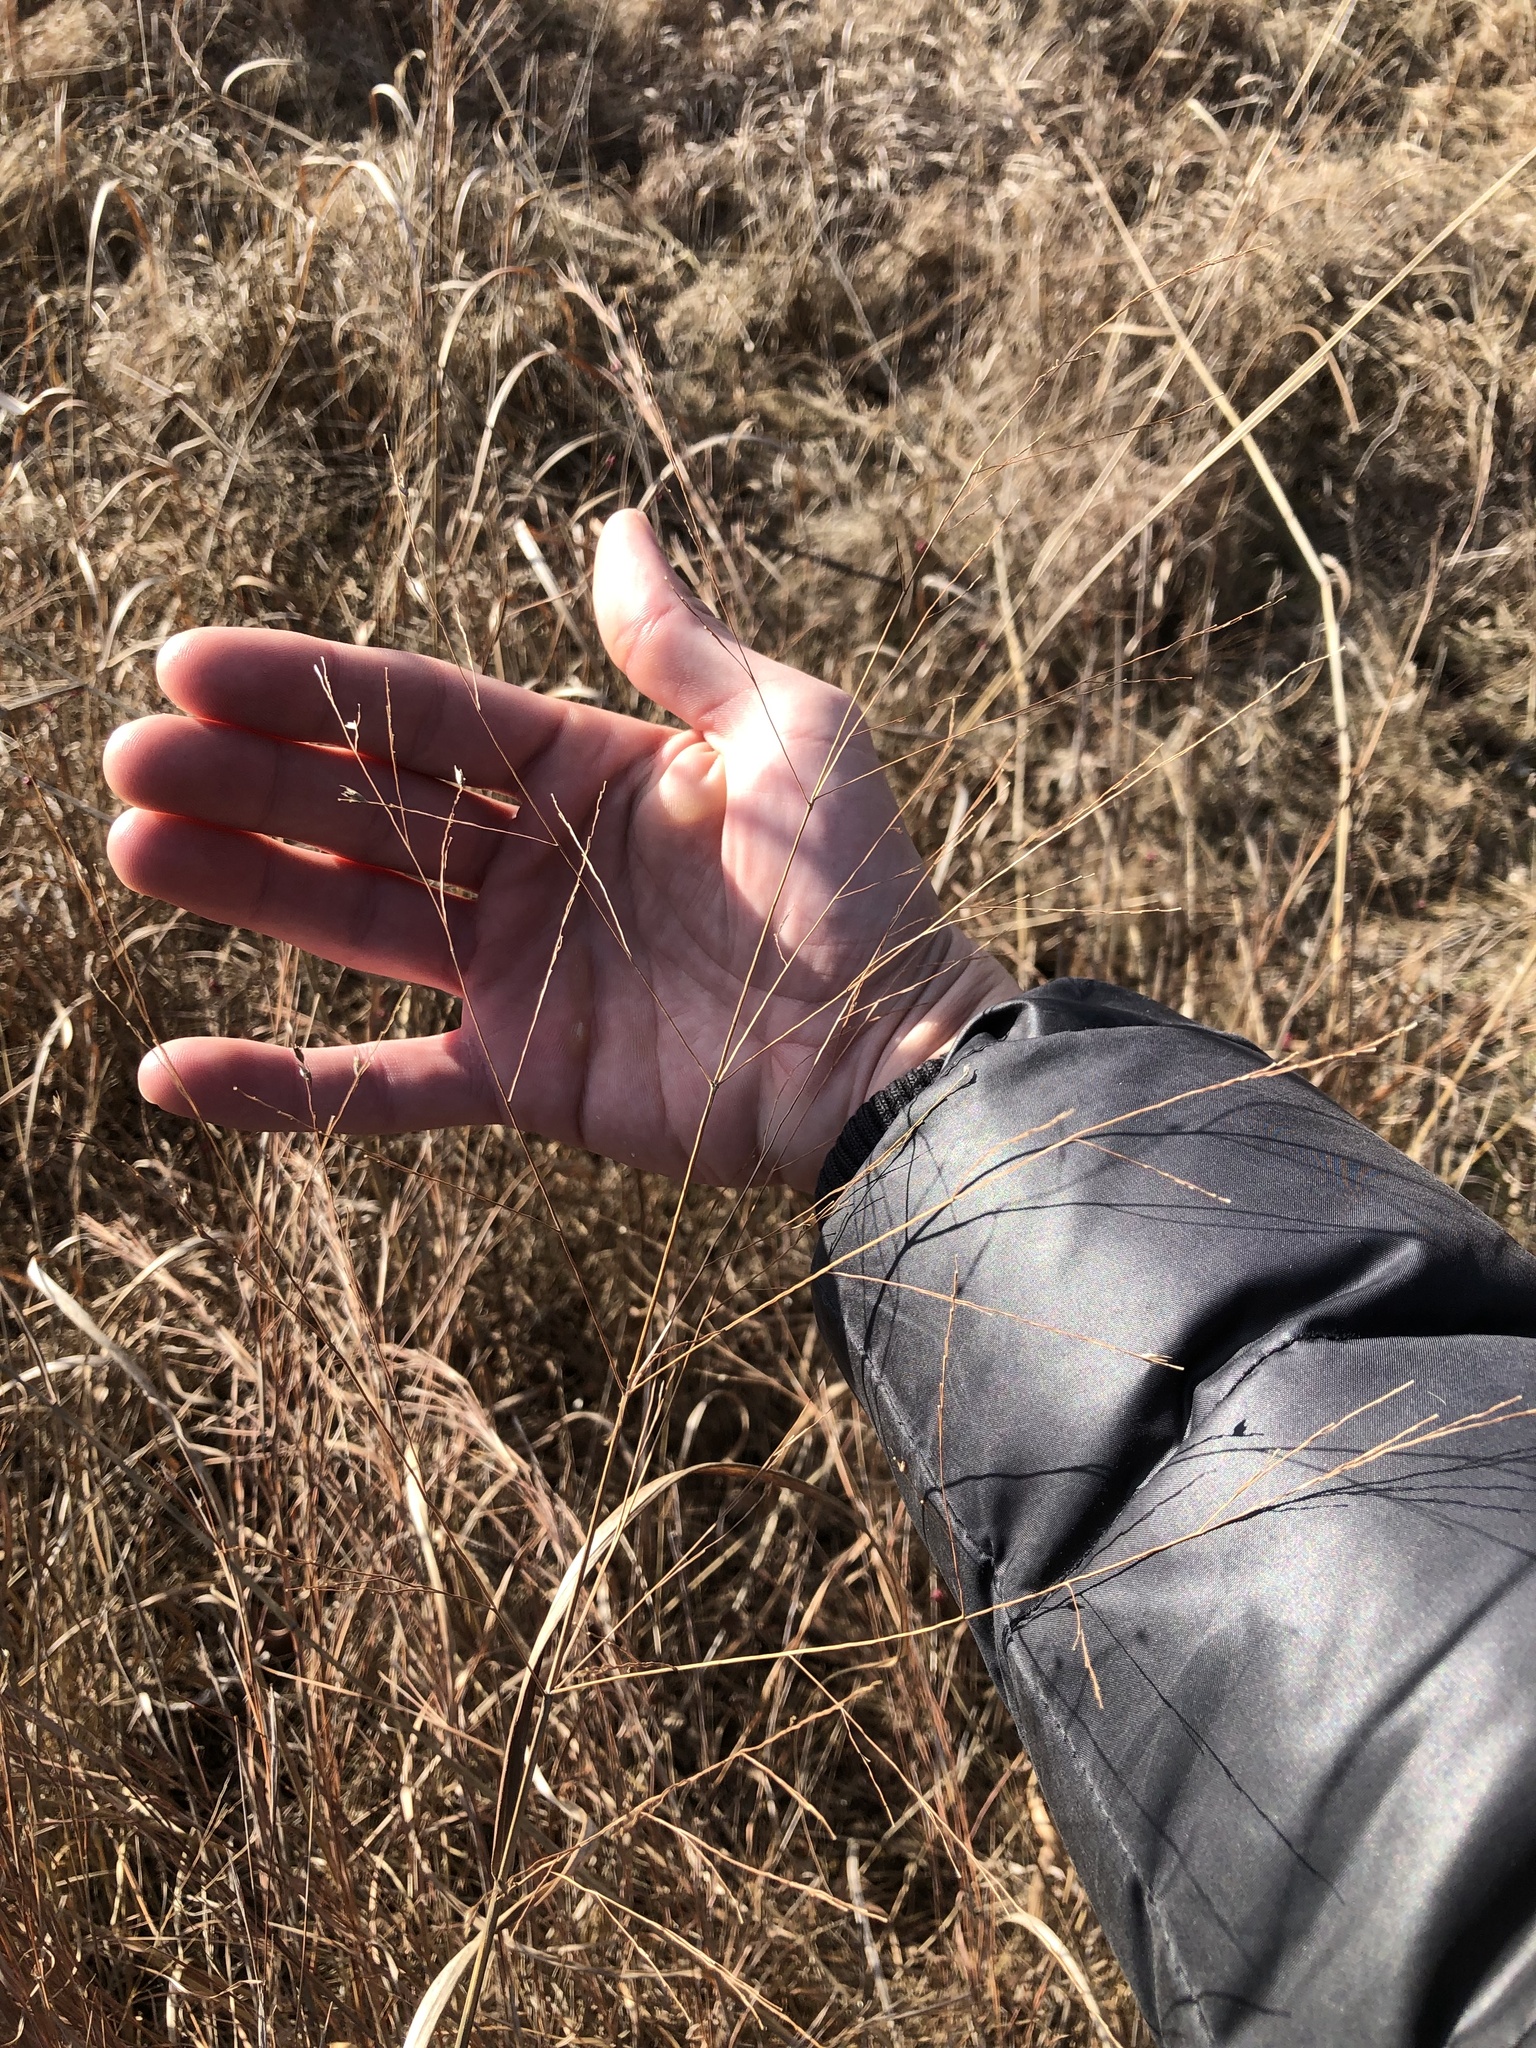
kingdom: Plantae
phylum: Tracheophyta
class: Liliopsida
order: Poales
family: Poaceae
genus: Panicum
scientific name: Panicum virgatum
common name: Switchgrass
